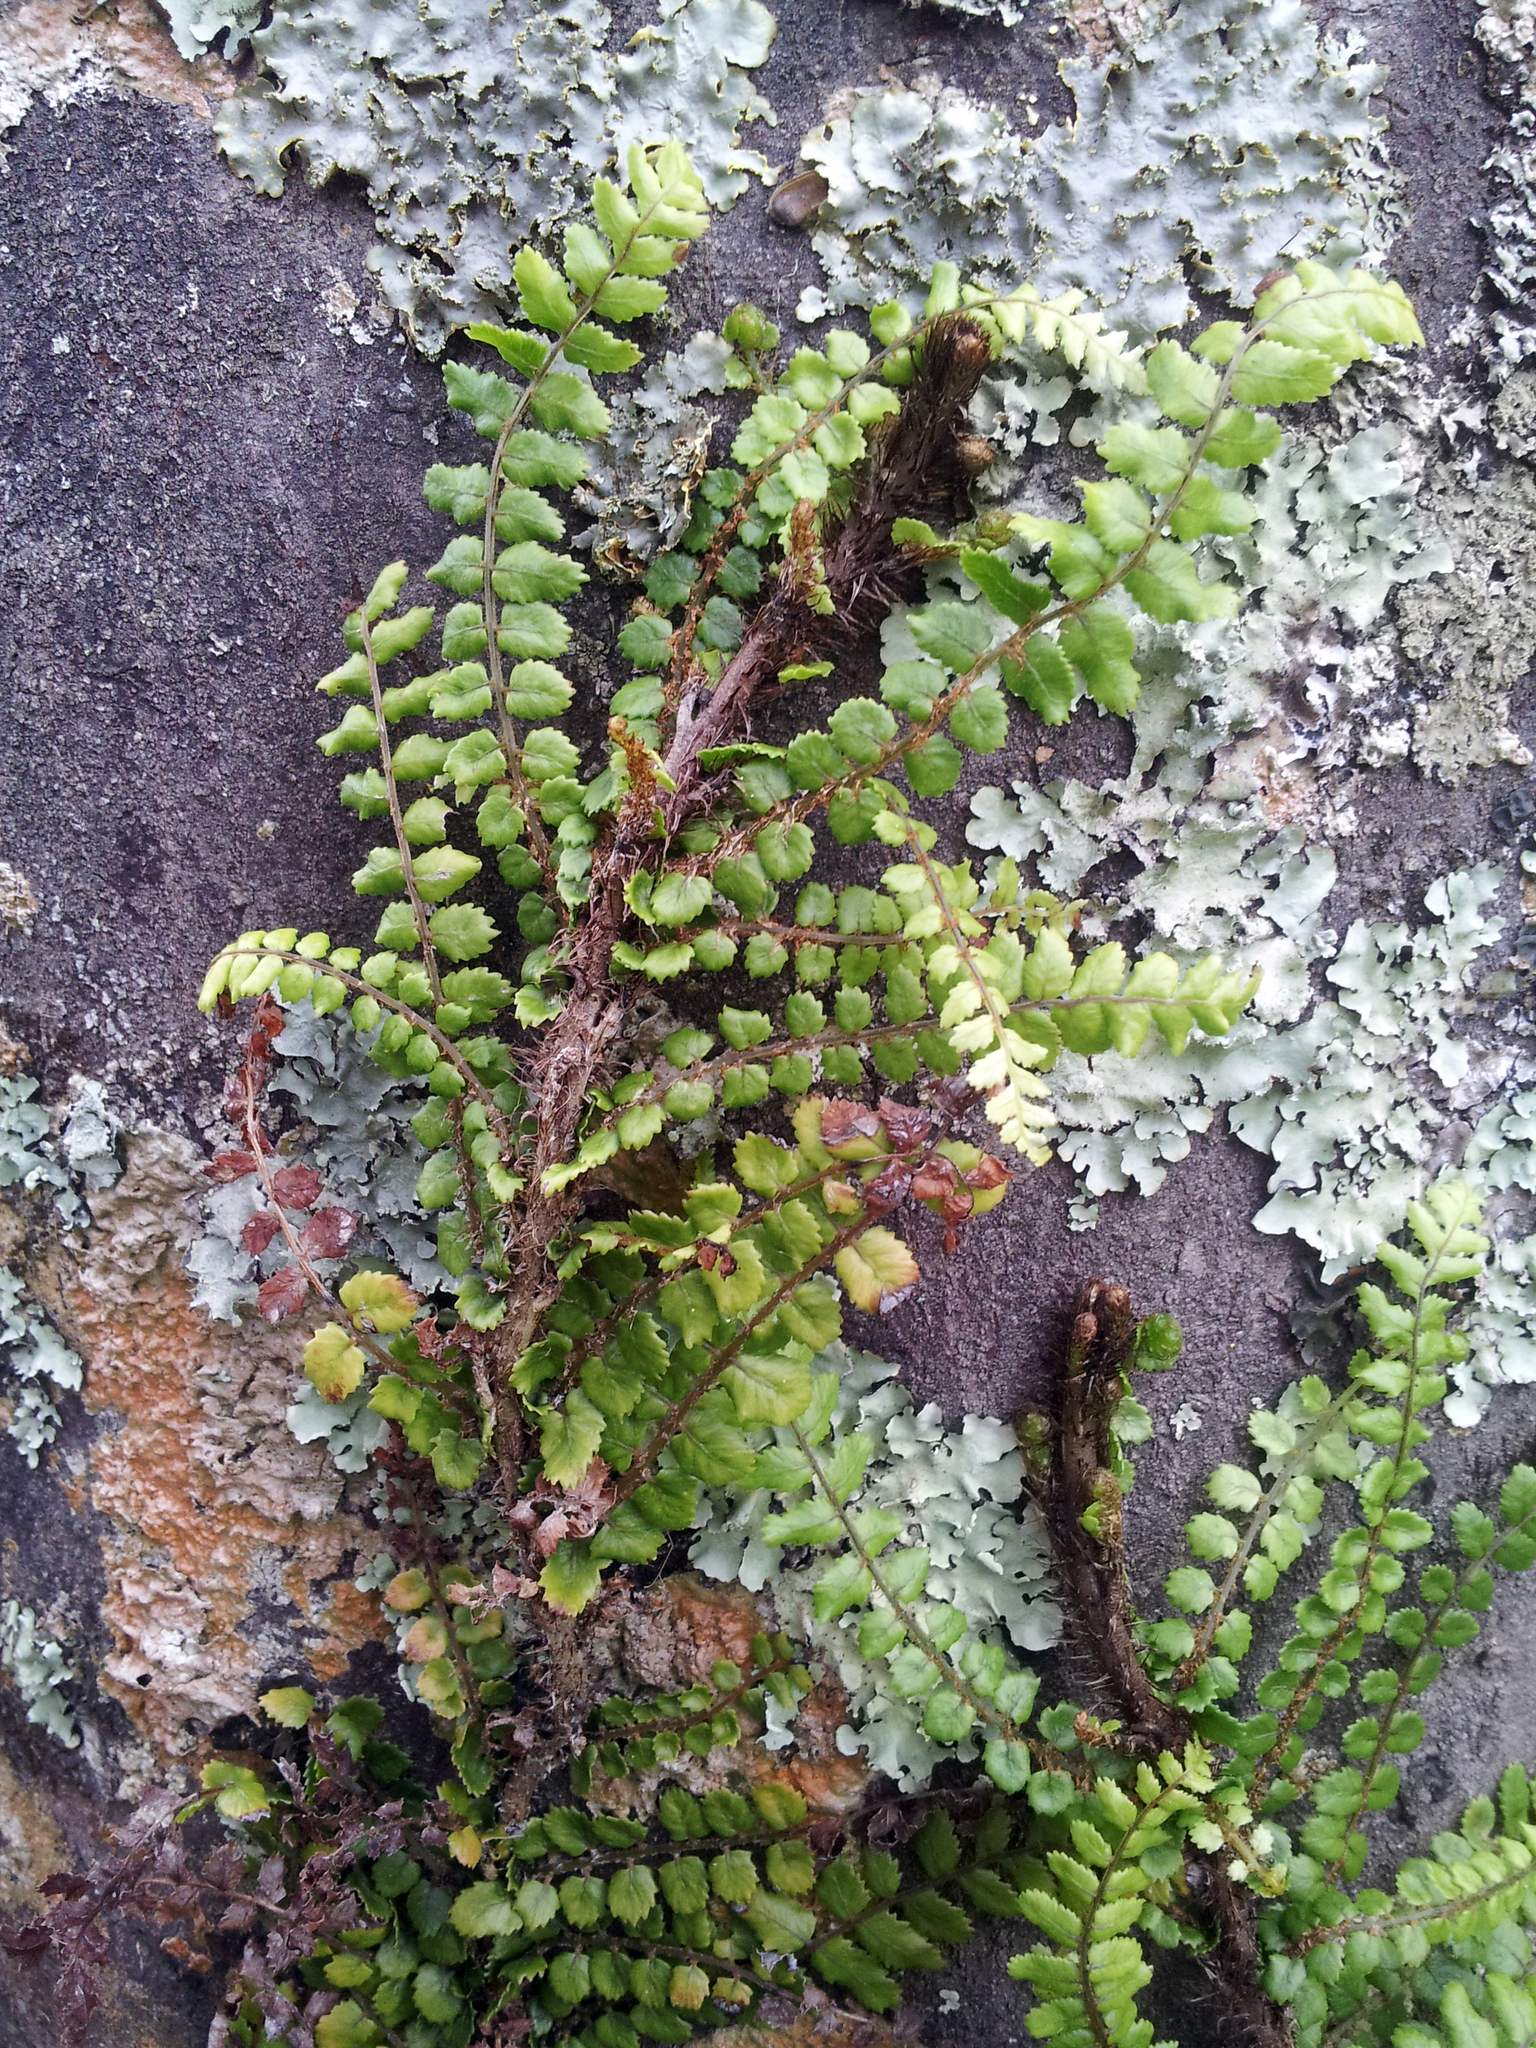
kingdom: Plantae
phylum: Tracheophyta
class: Polypodiopsida
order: Polypodiales
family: Blechnaceae
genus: Icarus
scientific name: Icarus filiformis
